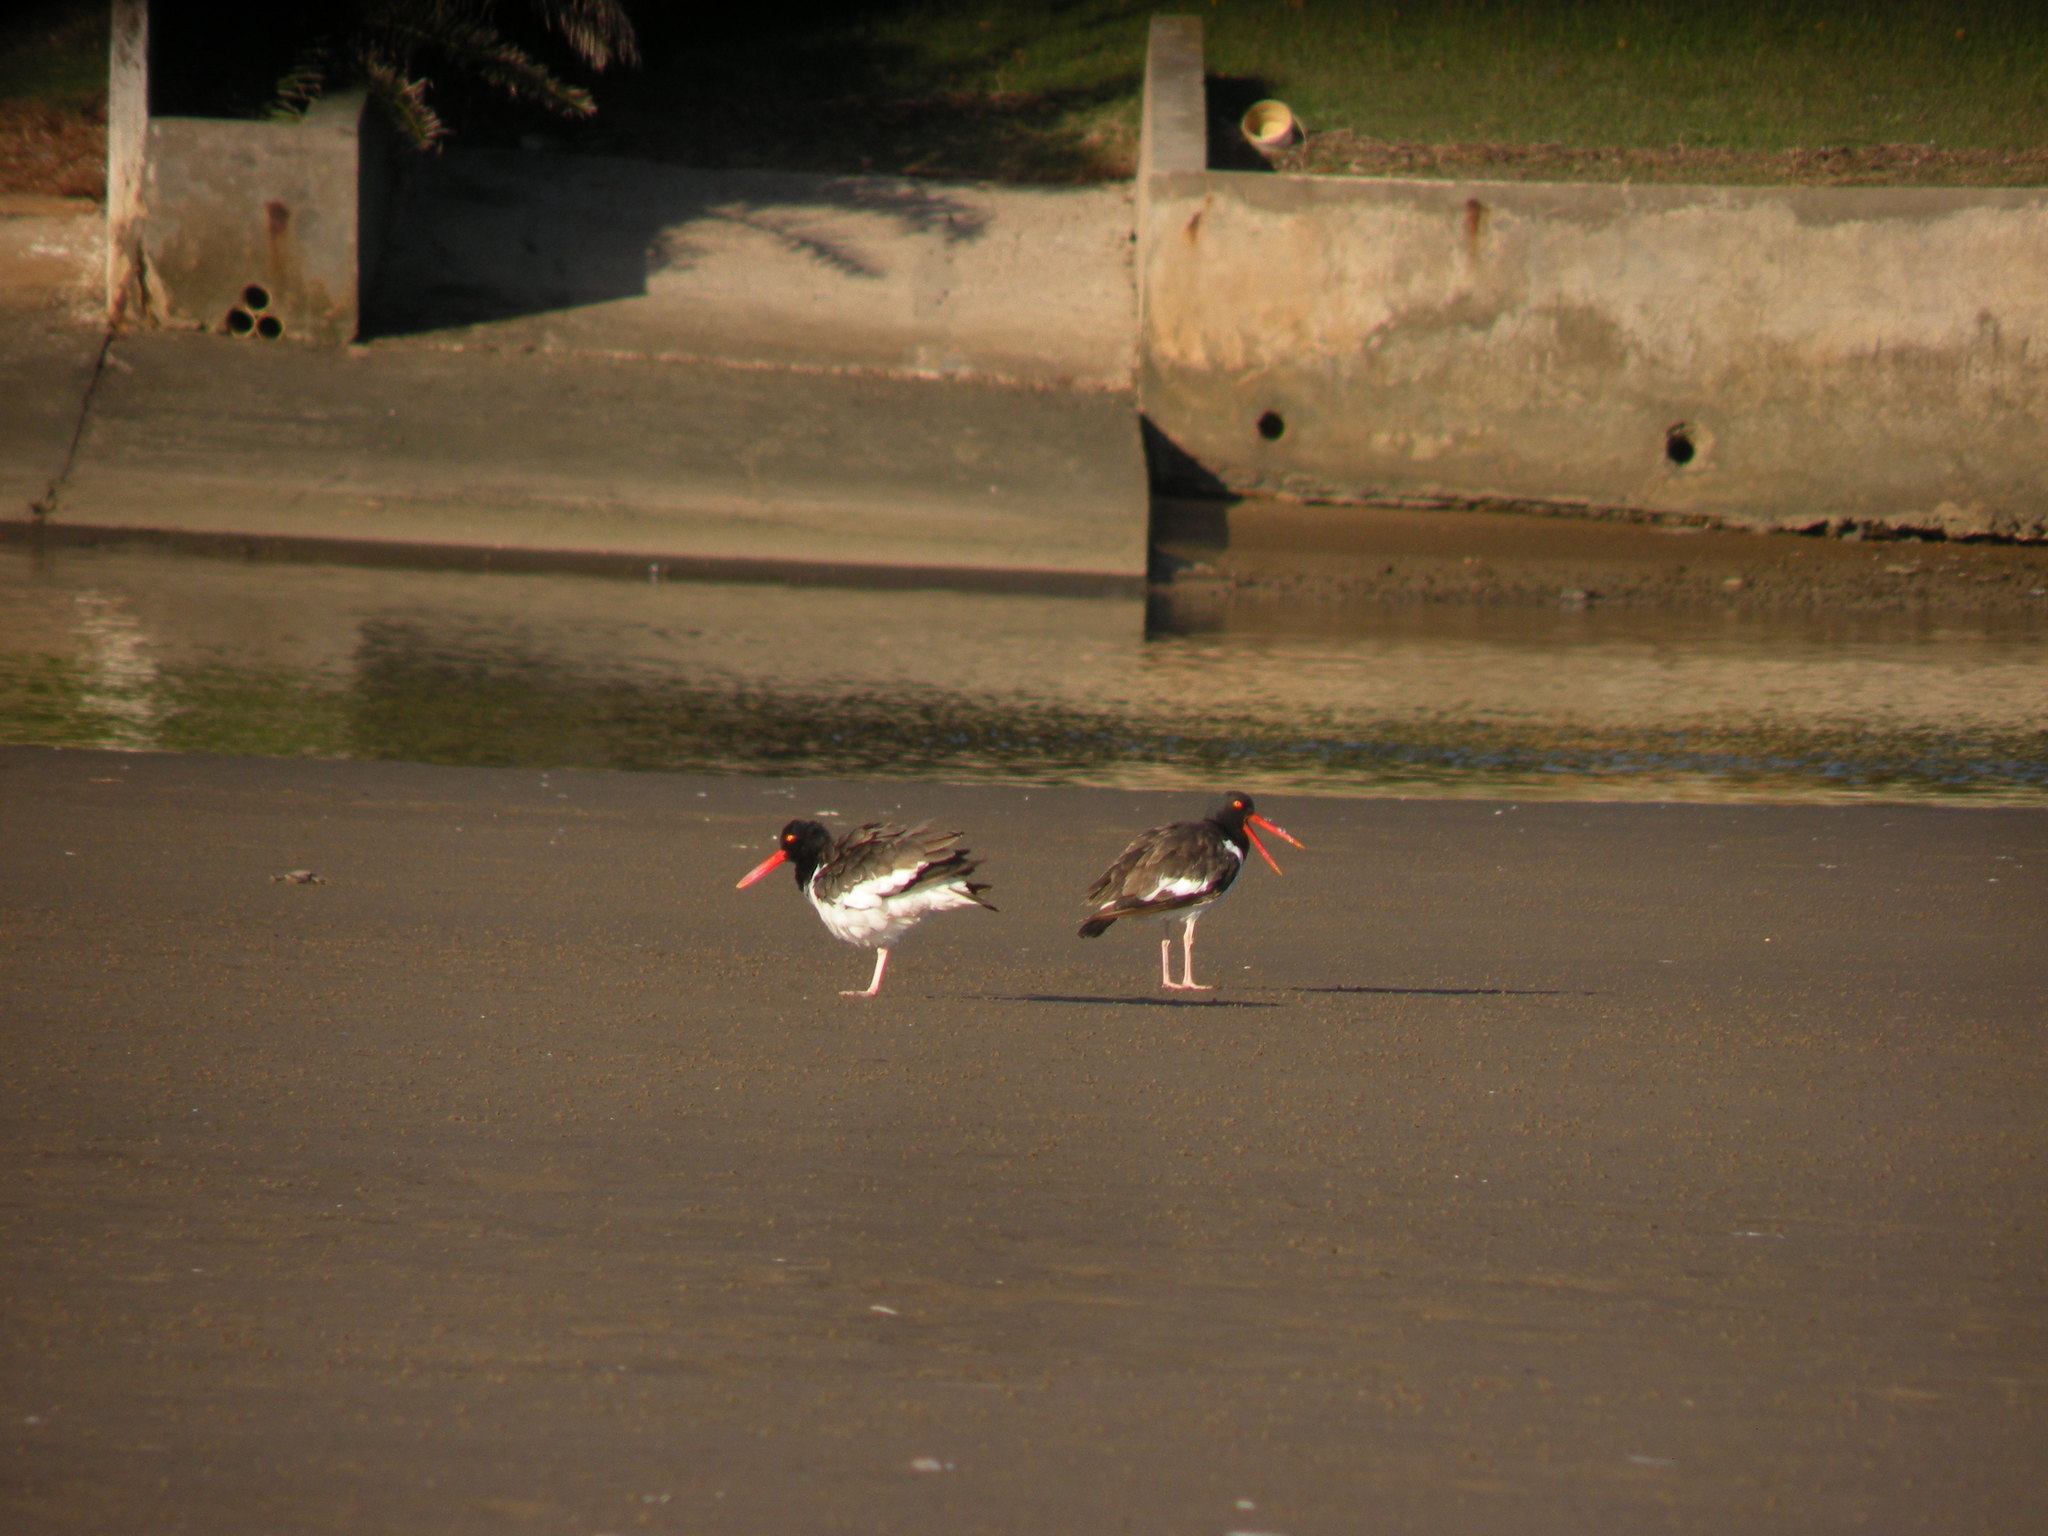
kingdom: Animalia
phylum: Chordata
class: Aves
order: Charadriiformes
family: Haematopodidae
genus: Haematopus
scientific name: Haematopus palliatus
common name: American oystercatcher
